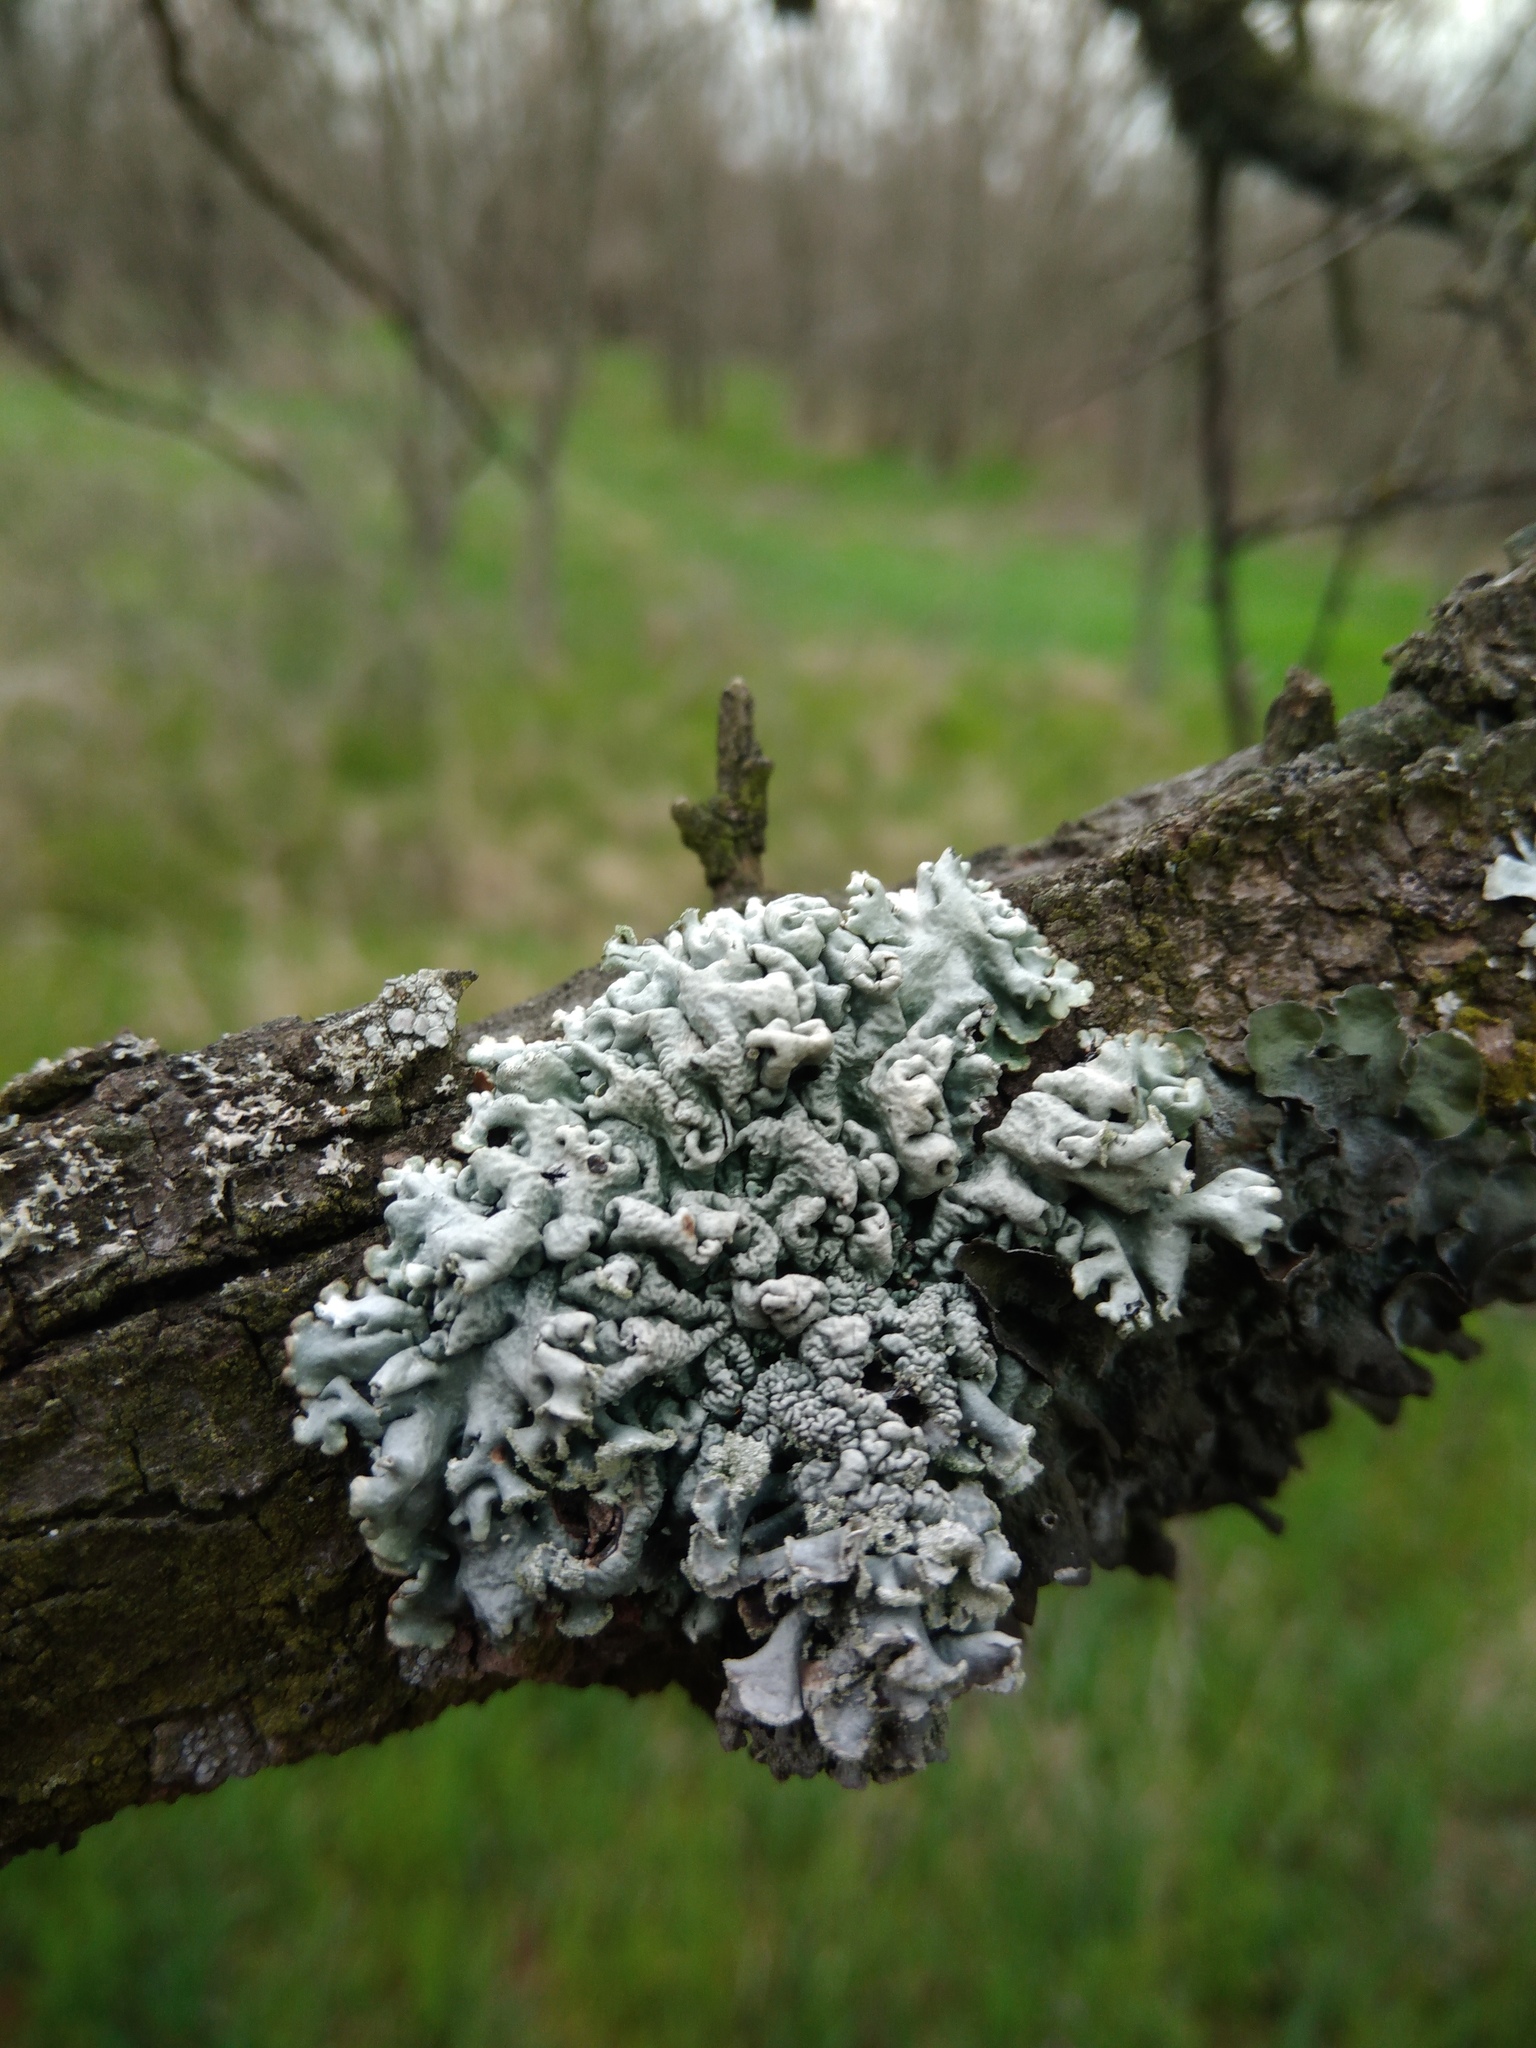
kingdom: Fungi
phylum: Ascomycota
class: Lecanoromycetes
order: Lecanorales
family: Parmeliaceae
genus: Hypogymnia
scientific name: Hypogymnia physodes
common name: Dark crottle
